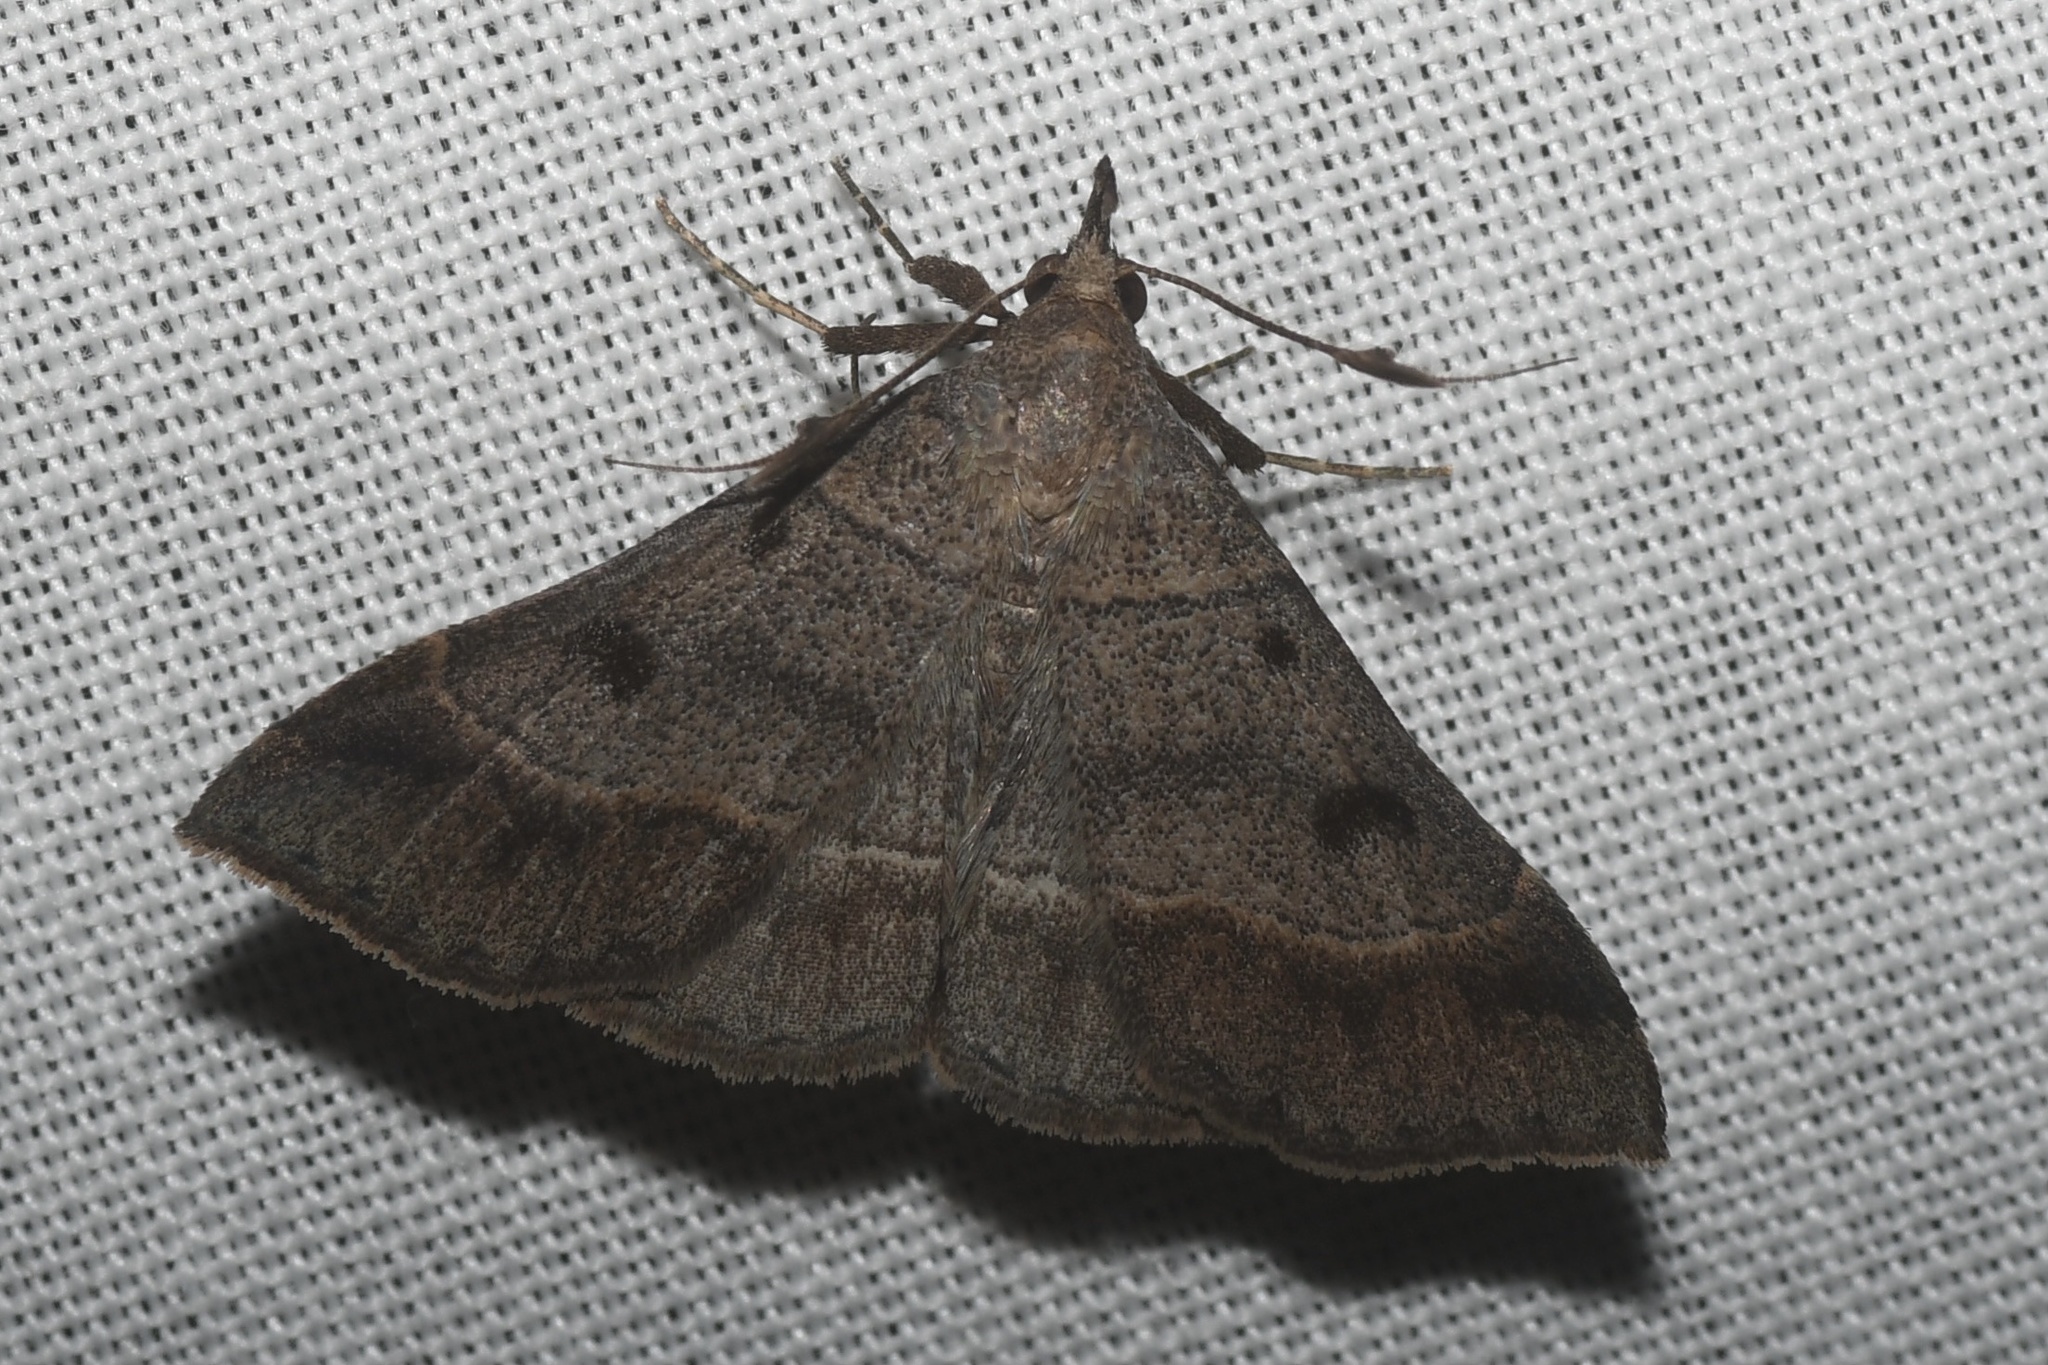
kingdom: Animalia
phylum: Arthropoda
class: Insecta
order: Lepidoptera
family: Erebidae
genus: Renia
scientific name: Renia flavipunctalis
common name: Yellow-spotted renia moth
